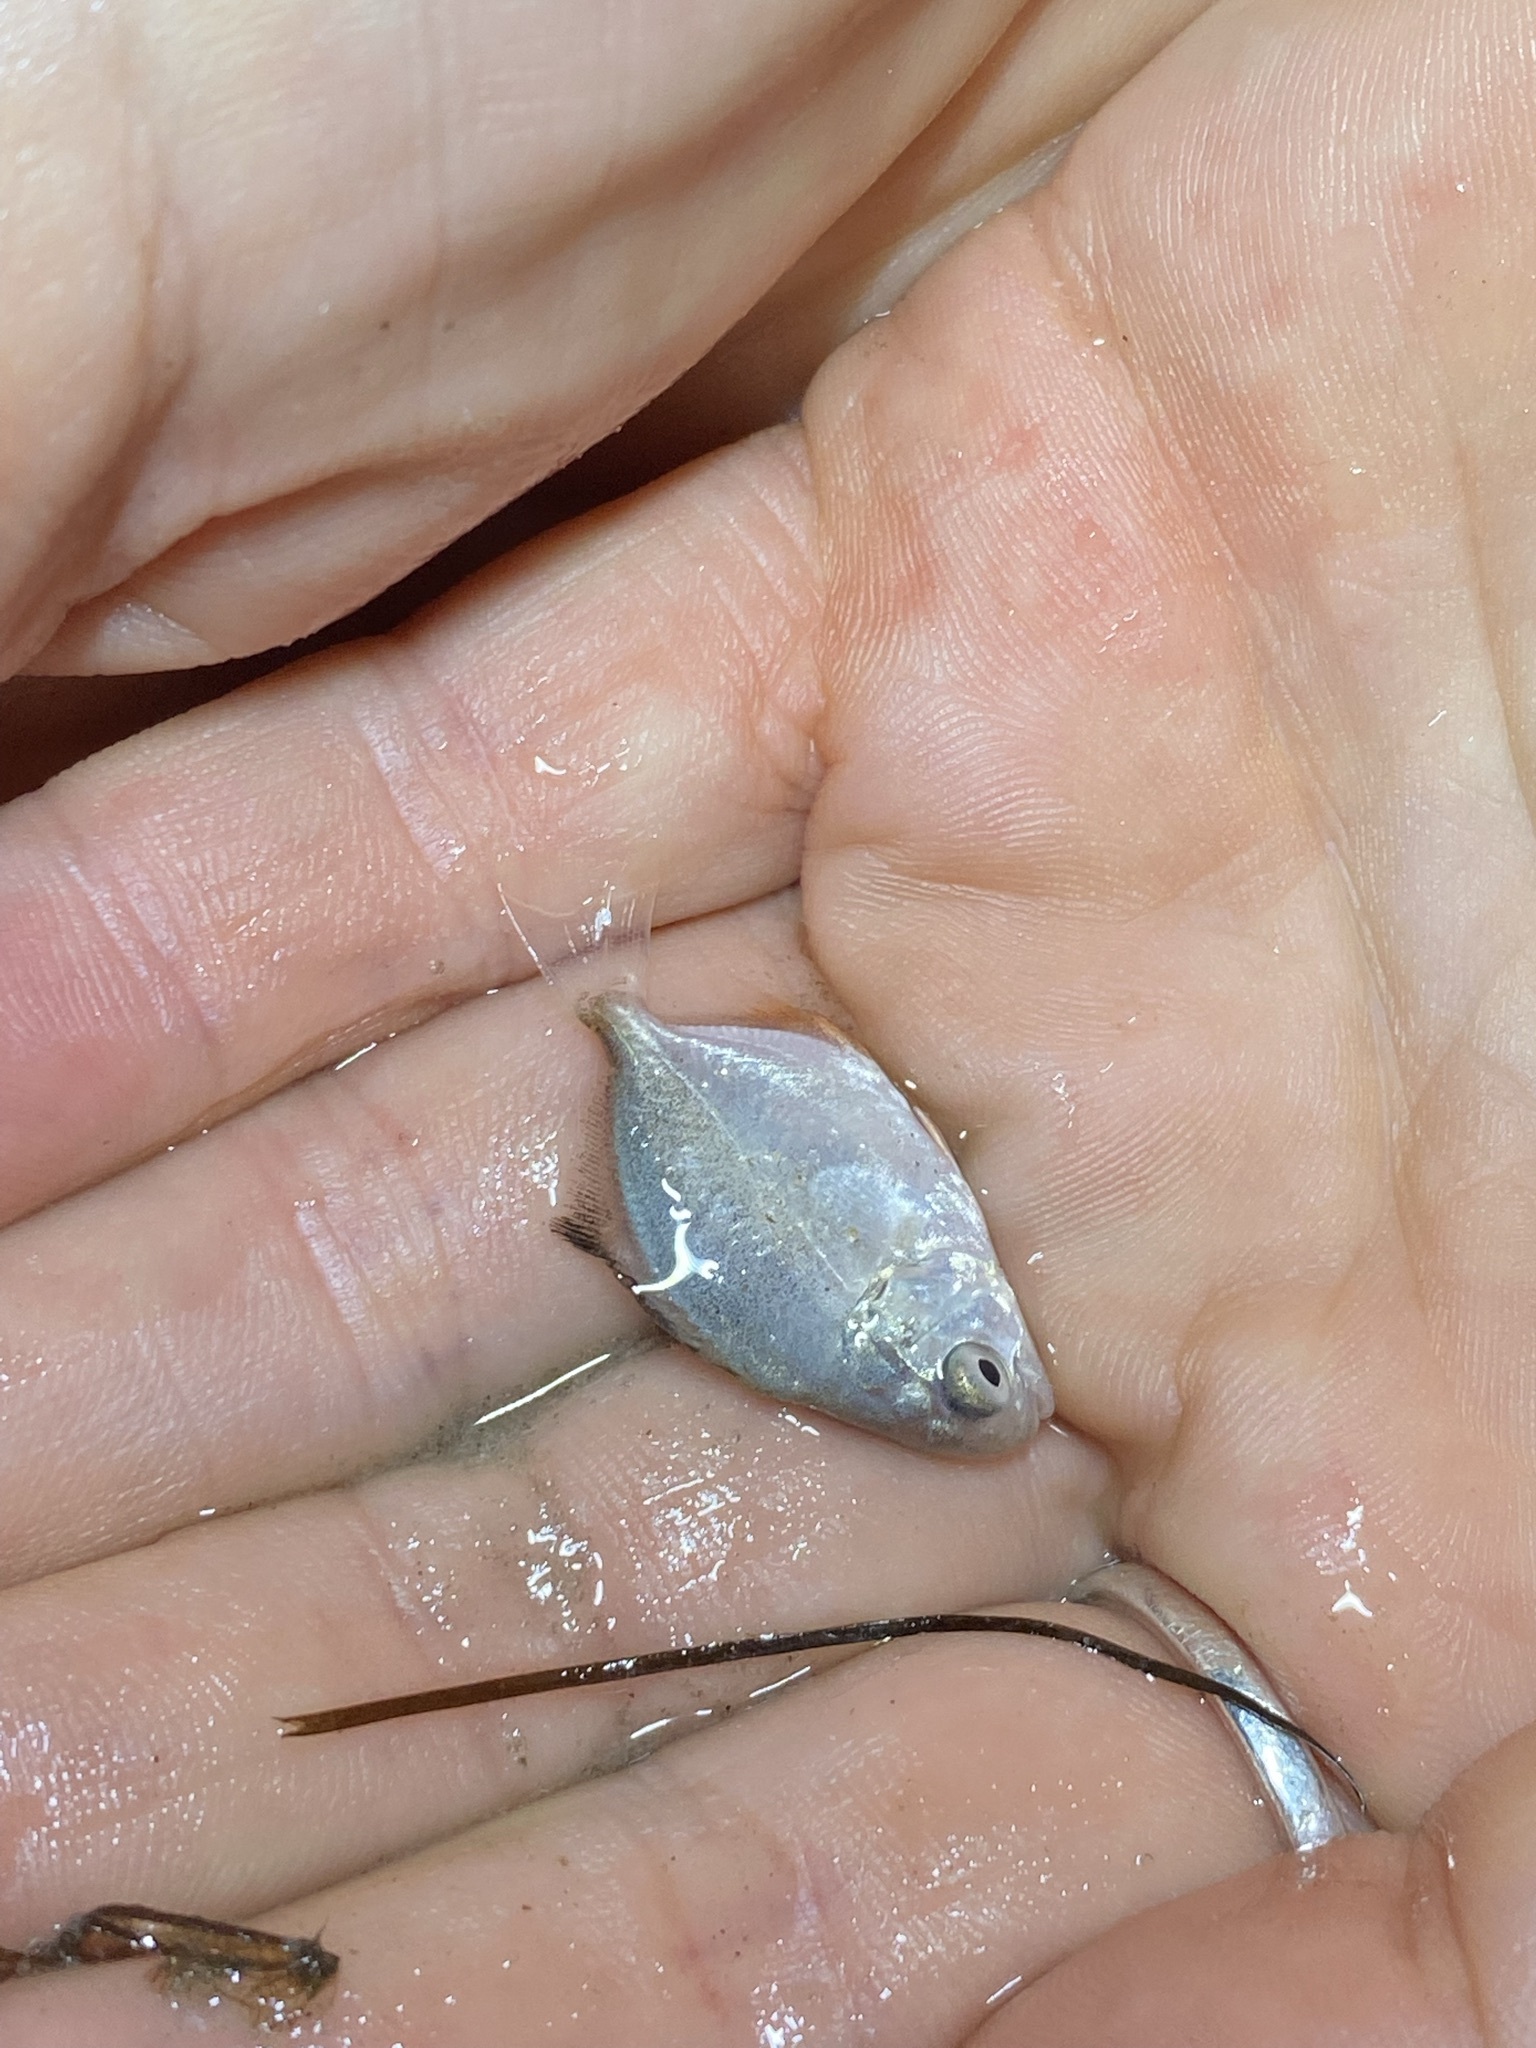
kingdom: Animalia
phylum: Chordata
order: Perciformes
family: Carangidae
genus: Trachinotus
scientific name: Trachinotus falcatus
